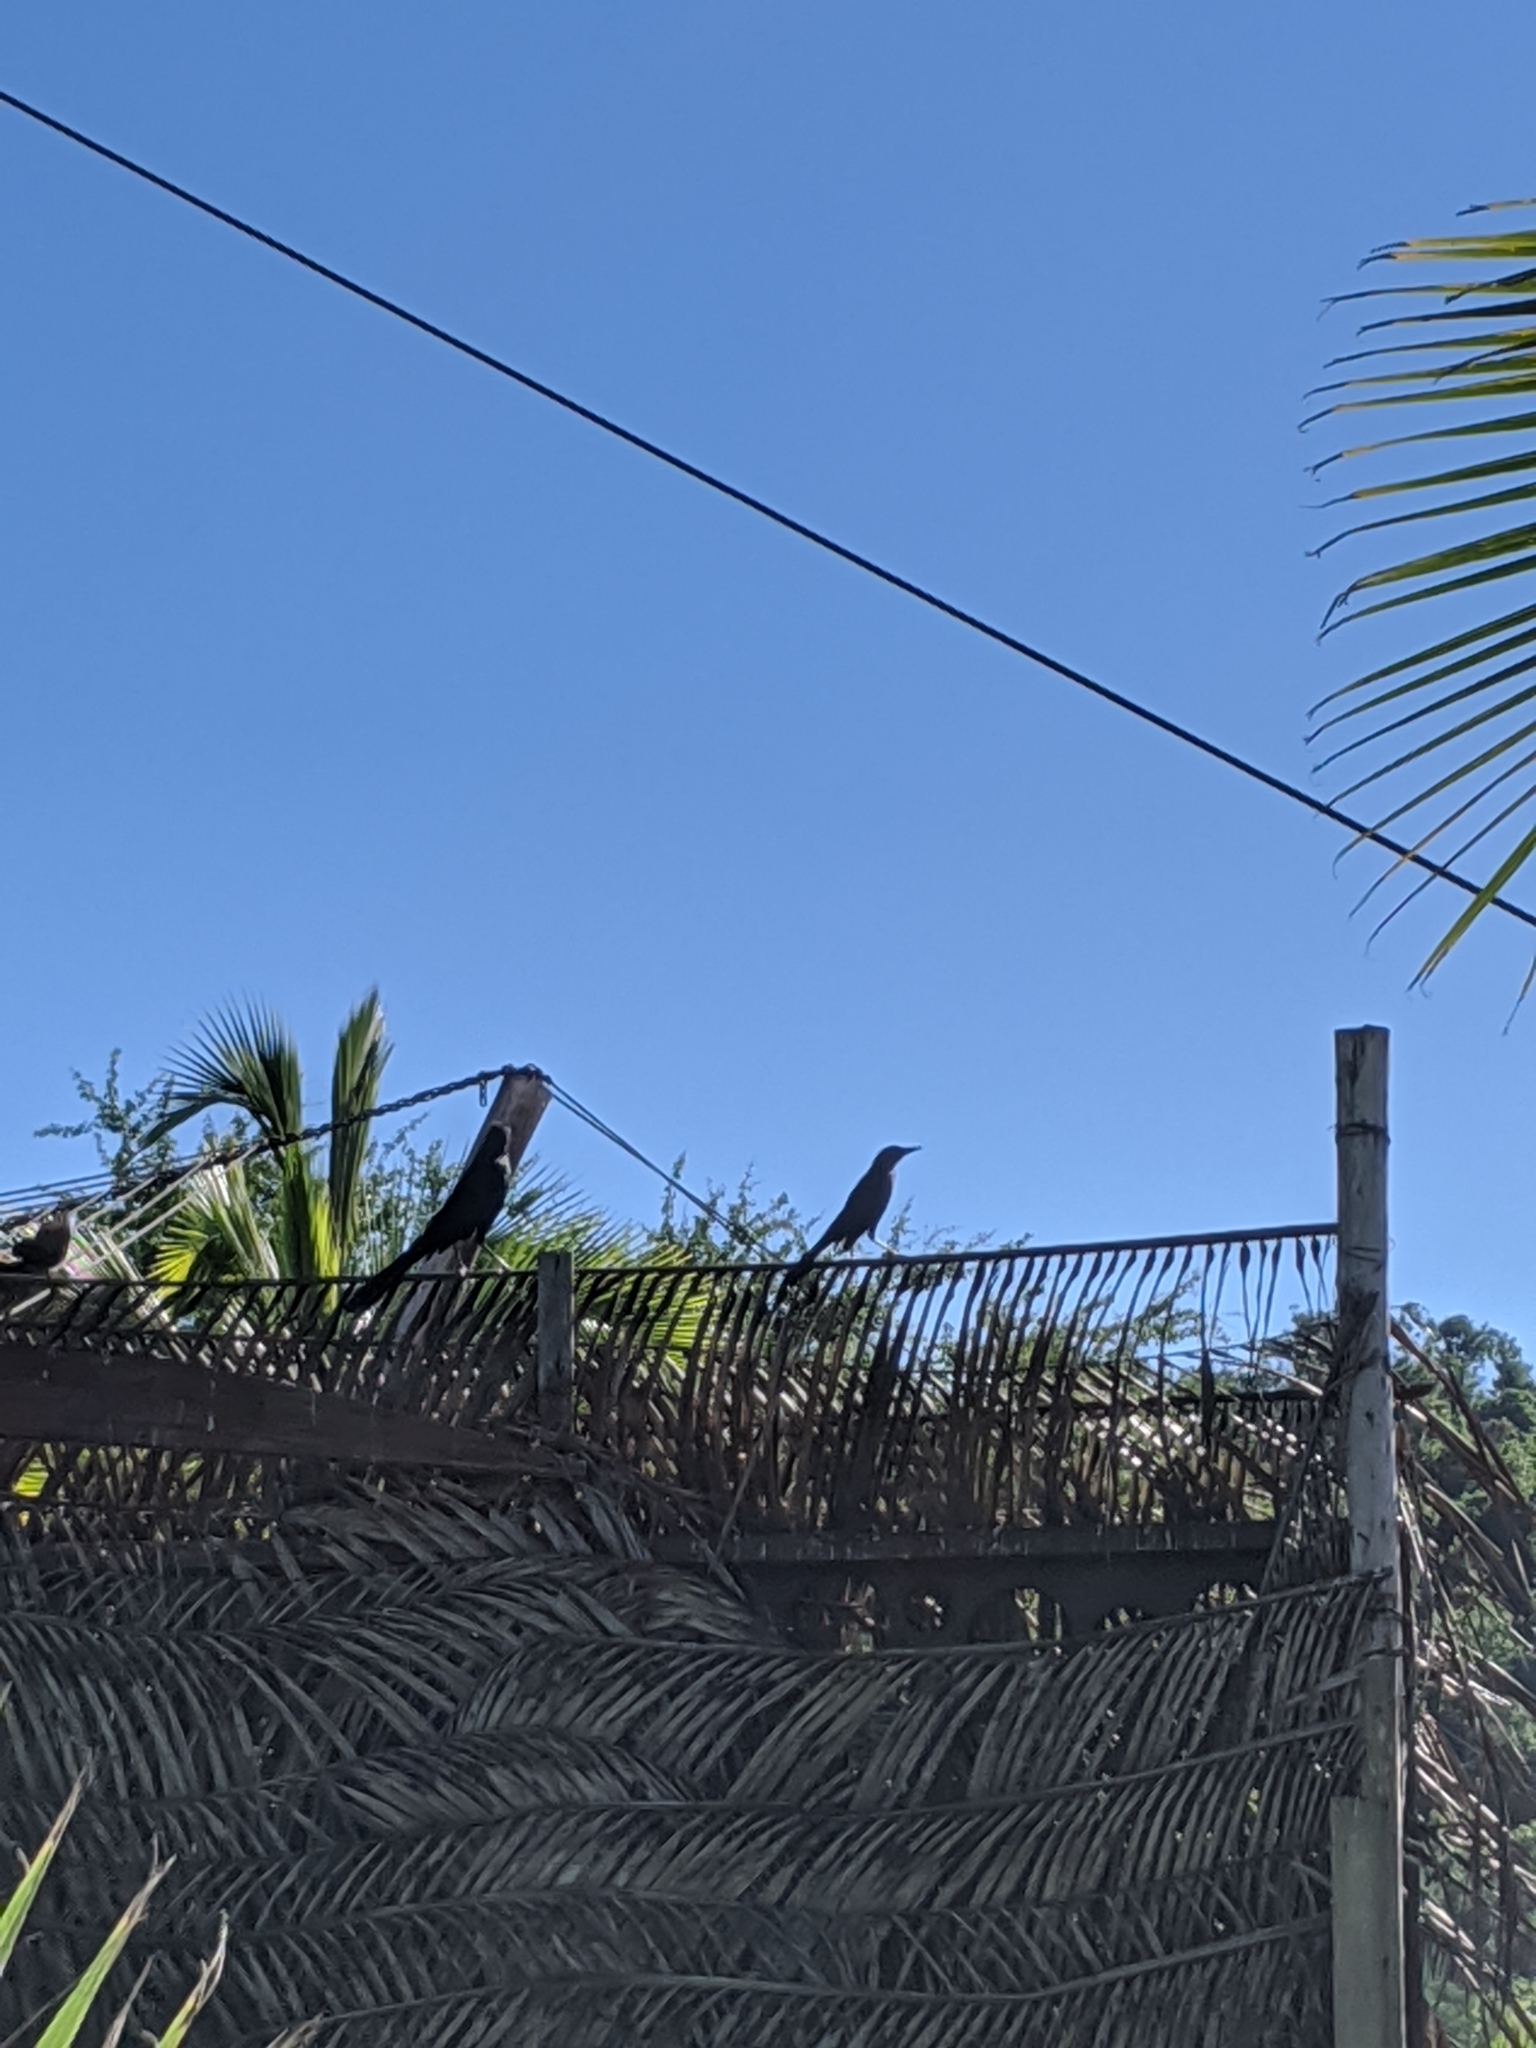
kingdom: Animalia
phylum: Chordata
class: Aves
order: Passeriformes
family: Icteridae
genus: Quiscalus
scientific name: Quiscalus mexicanus
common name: Great-tailed grackle
